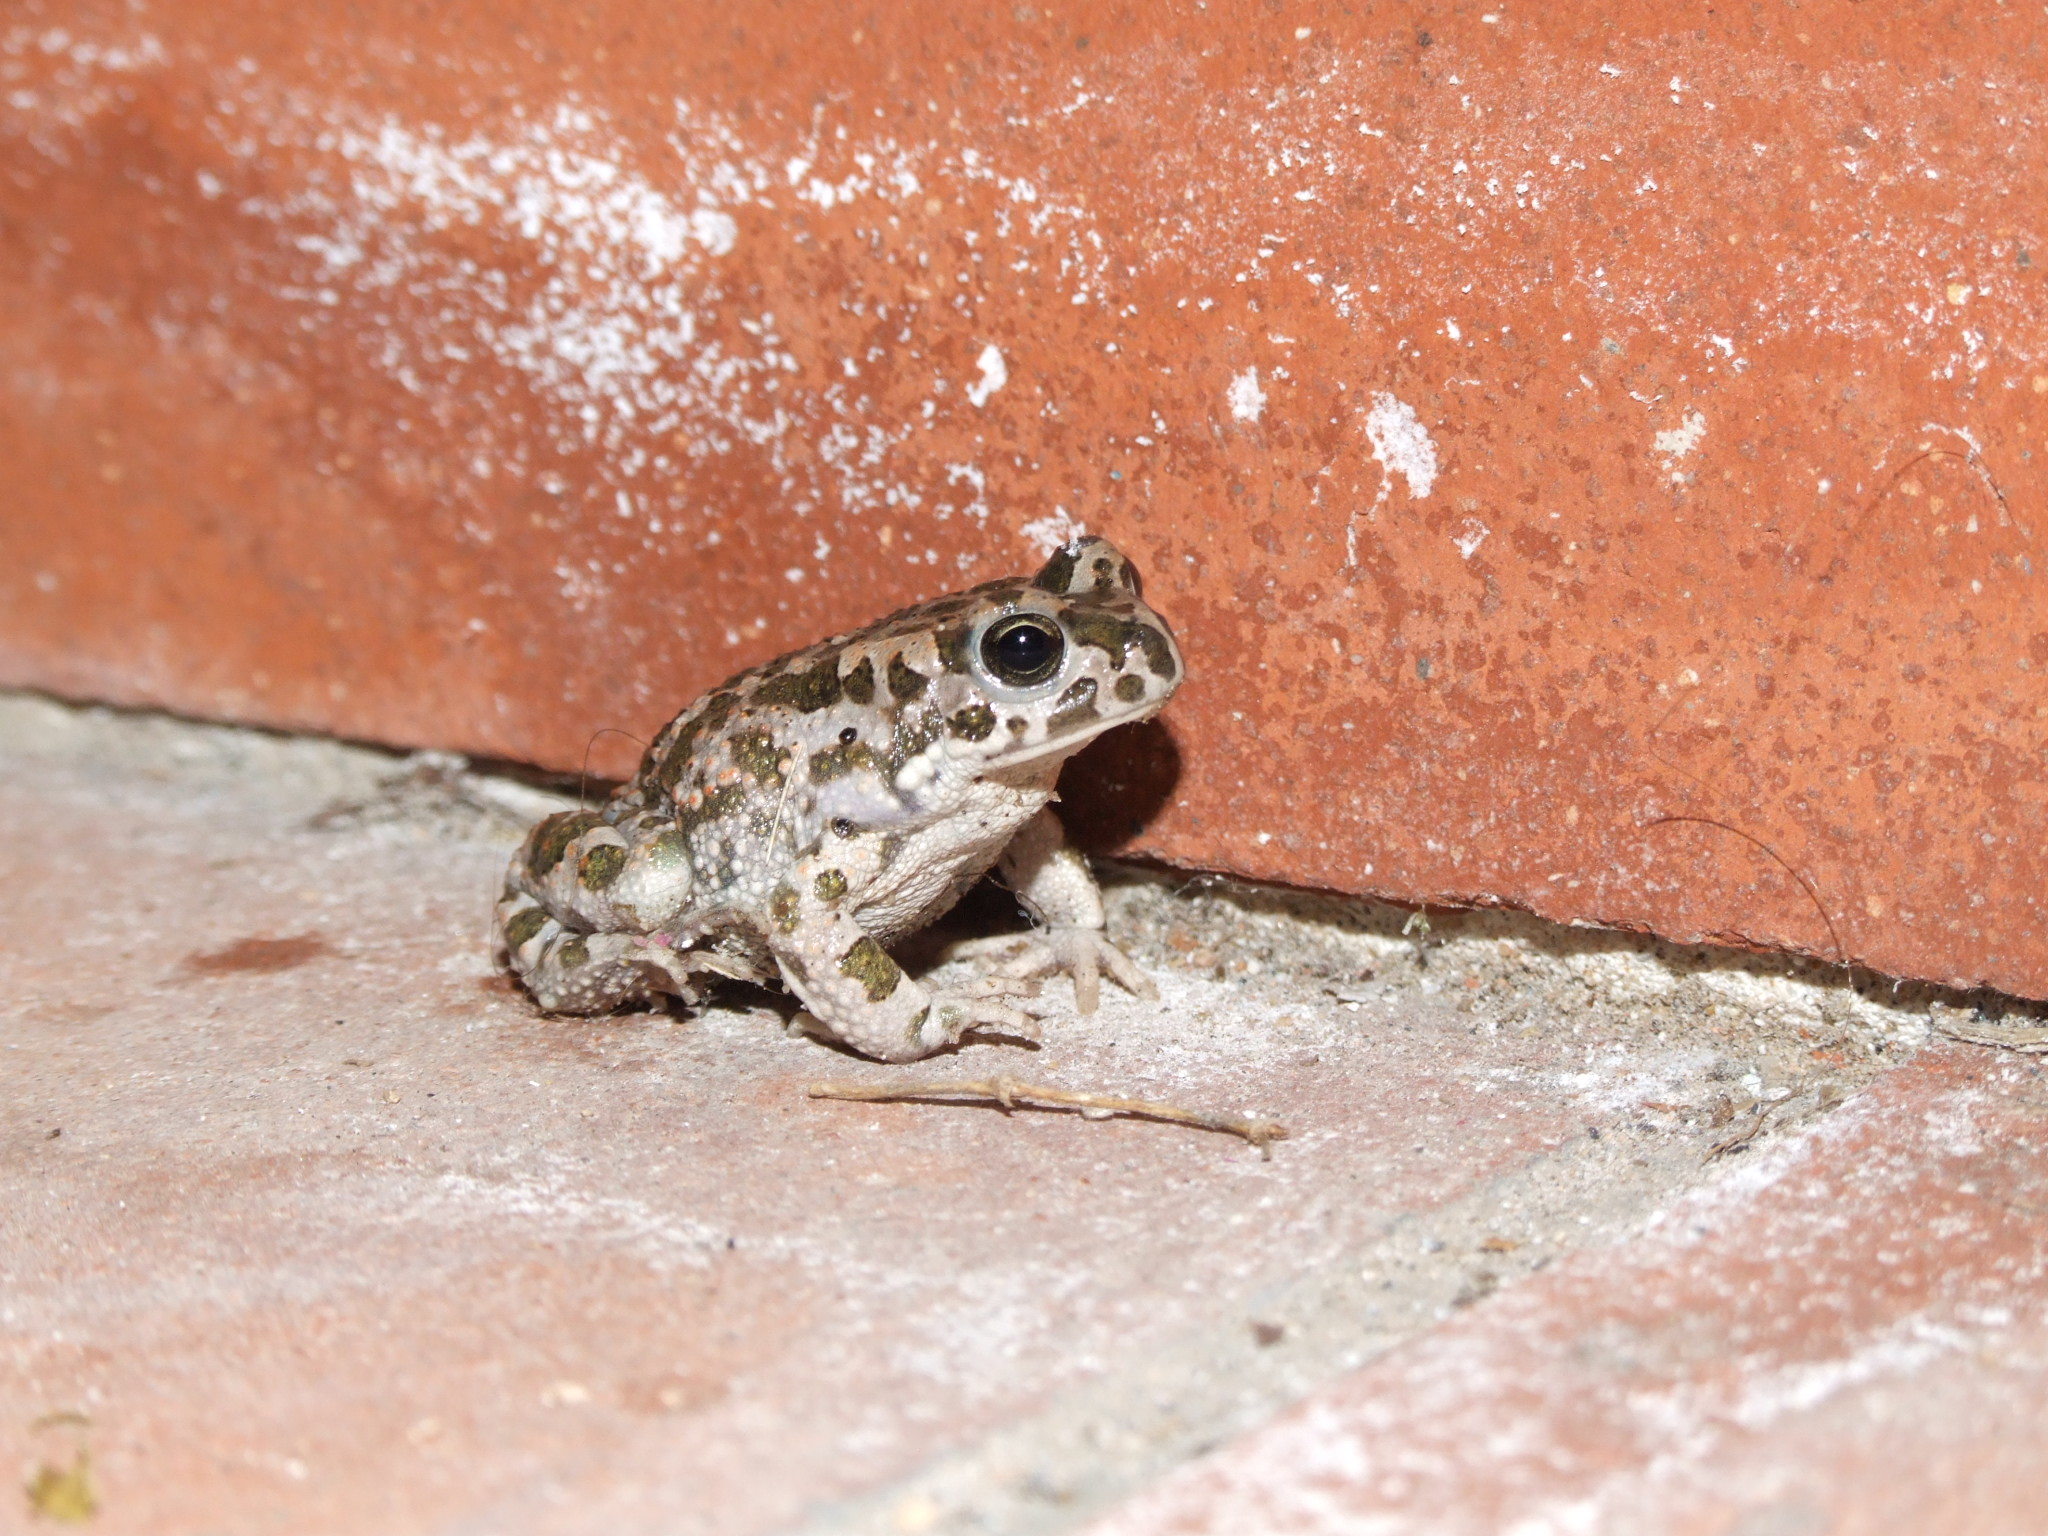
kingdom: Animalia
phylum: Chordata
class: Amphibia
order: Anura
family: Bufonidae
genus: Bufotes
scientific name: Bufotes viridis
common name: European green toad
